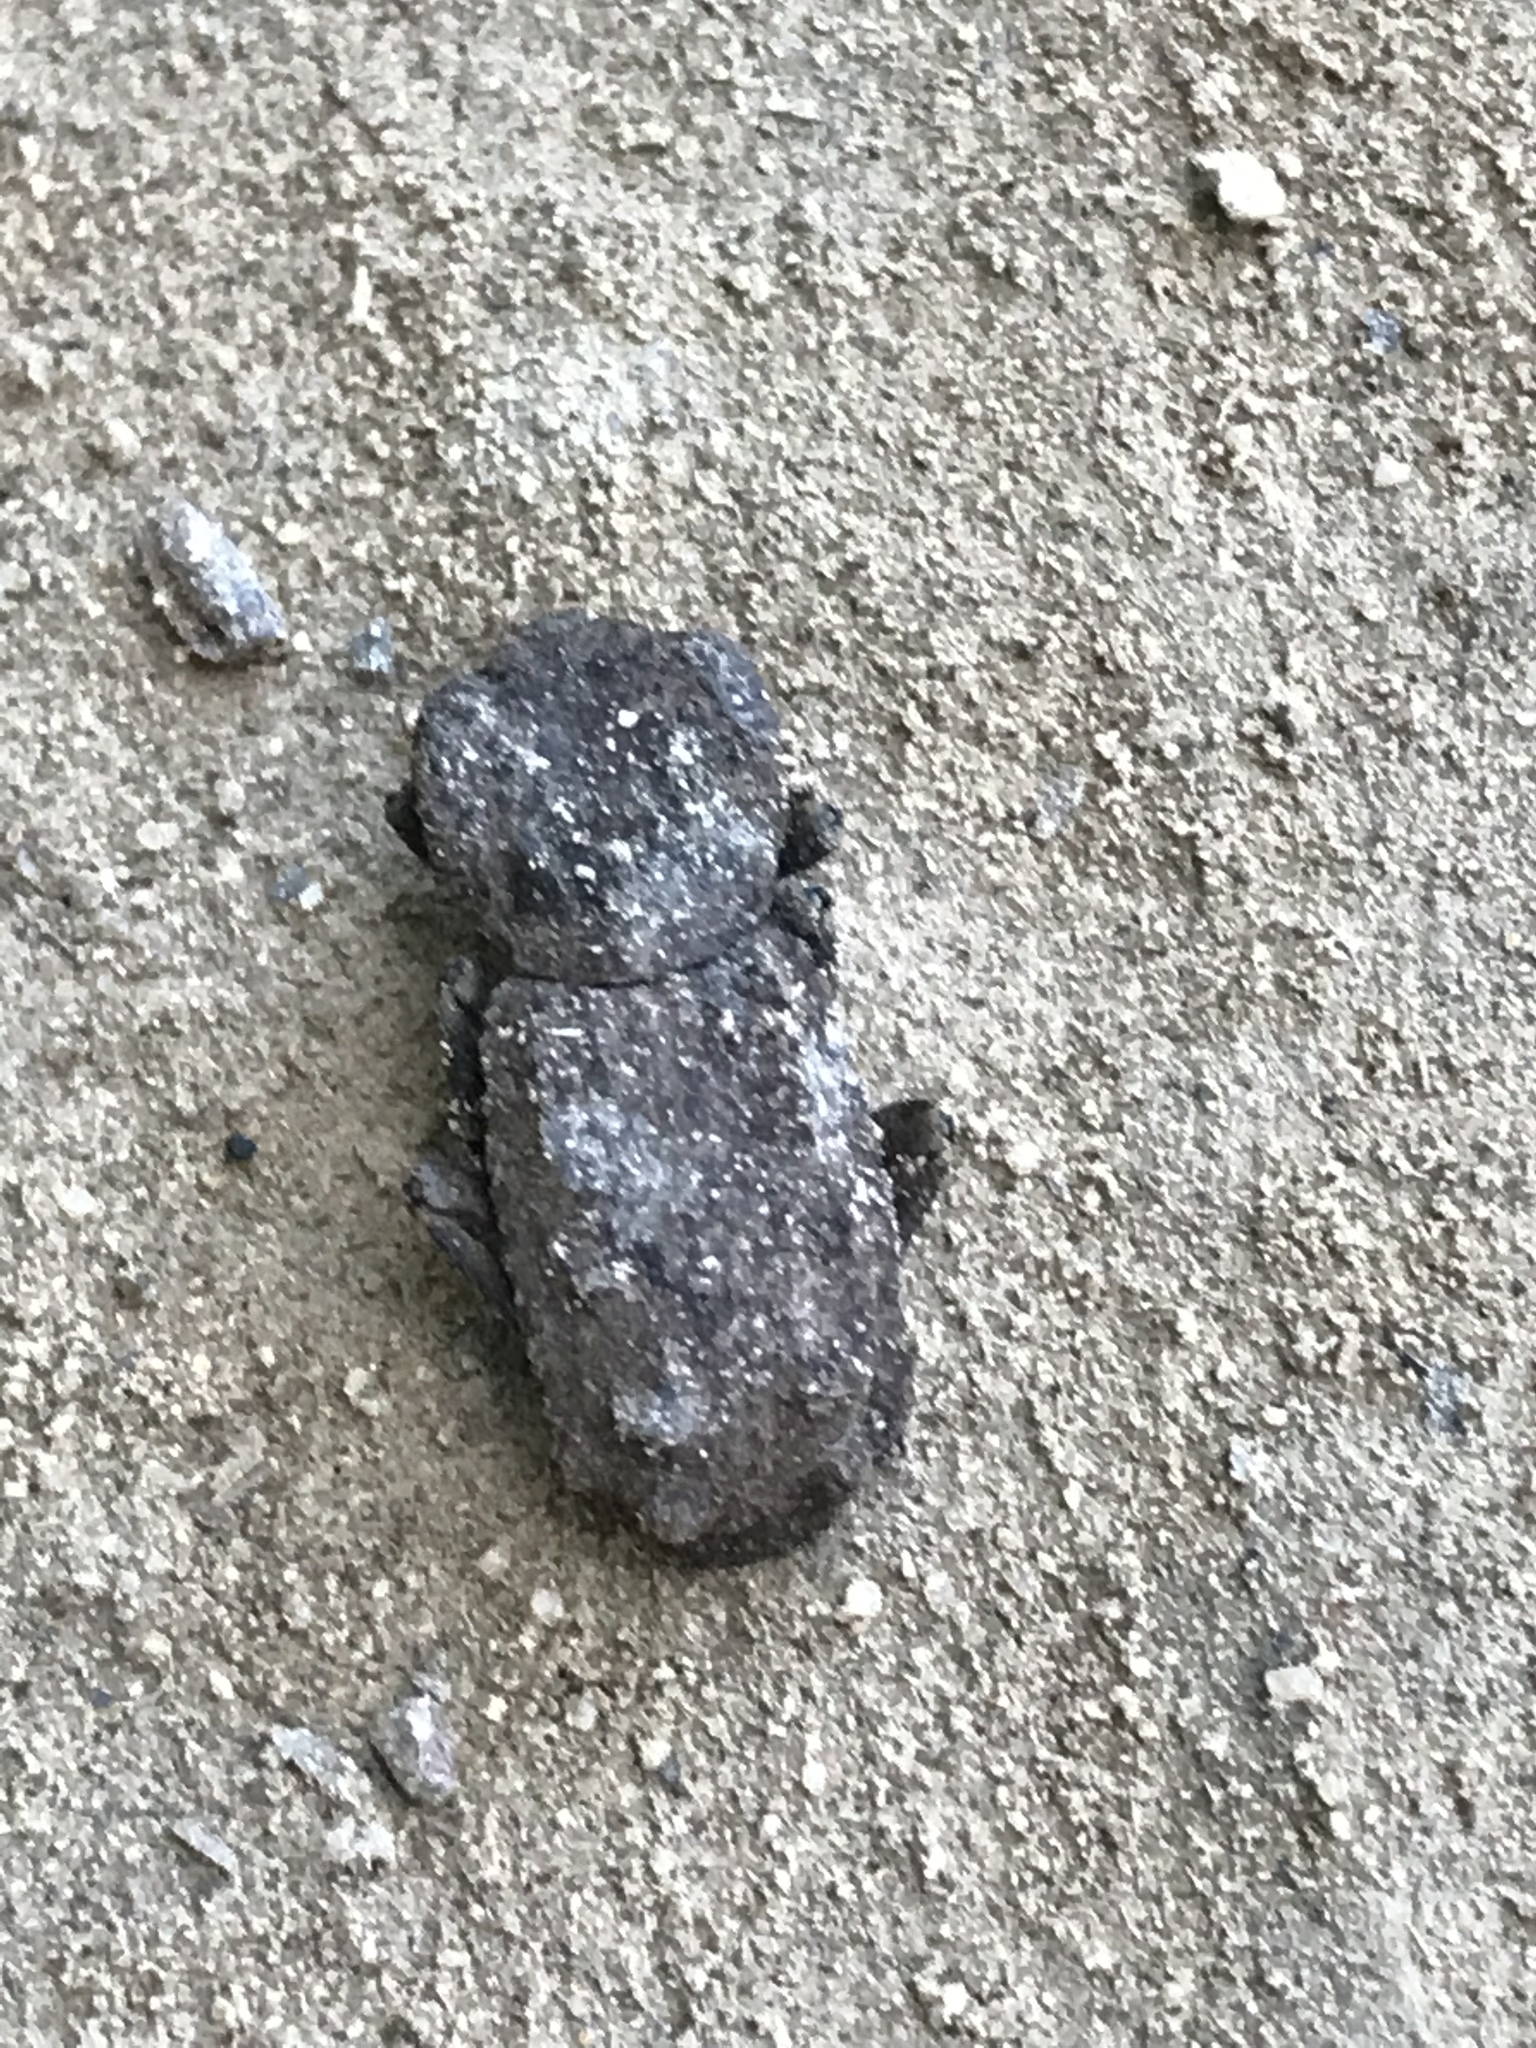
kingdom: Animalia
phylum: Arthropoda
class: Insecta
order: Coleoptera
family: Zopheridae
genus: Phloeodes
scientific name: Phloeodes plicatus
